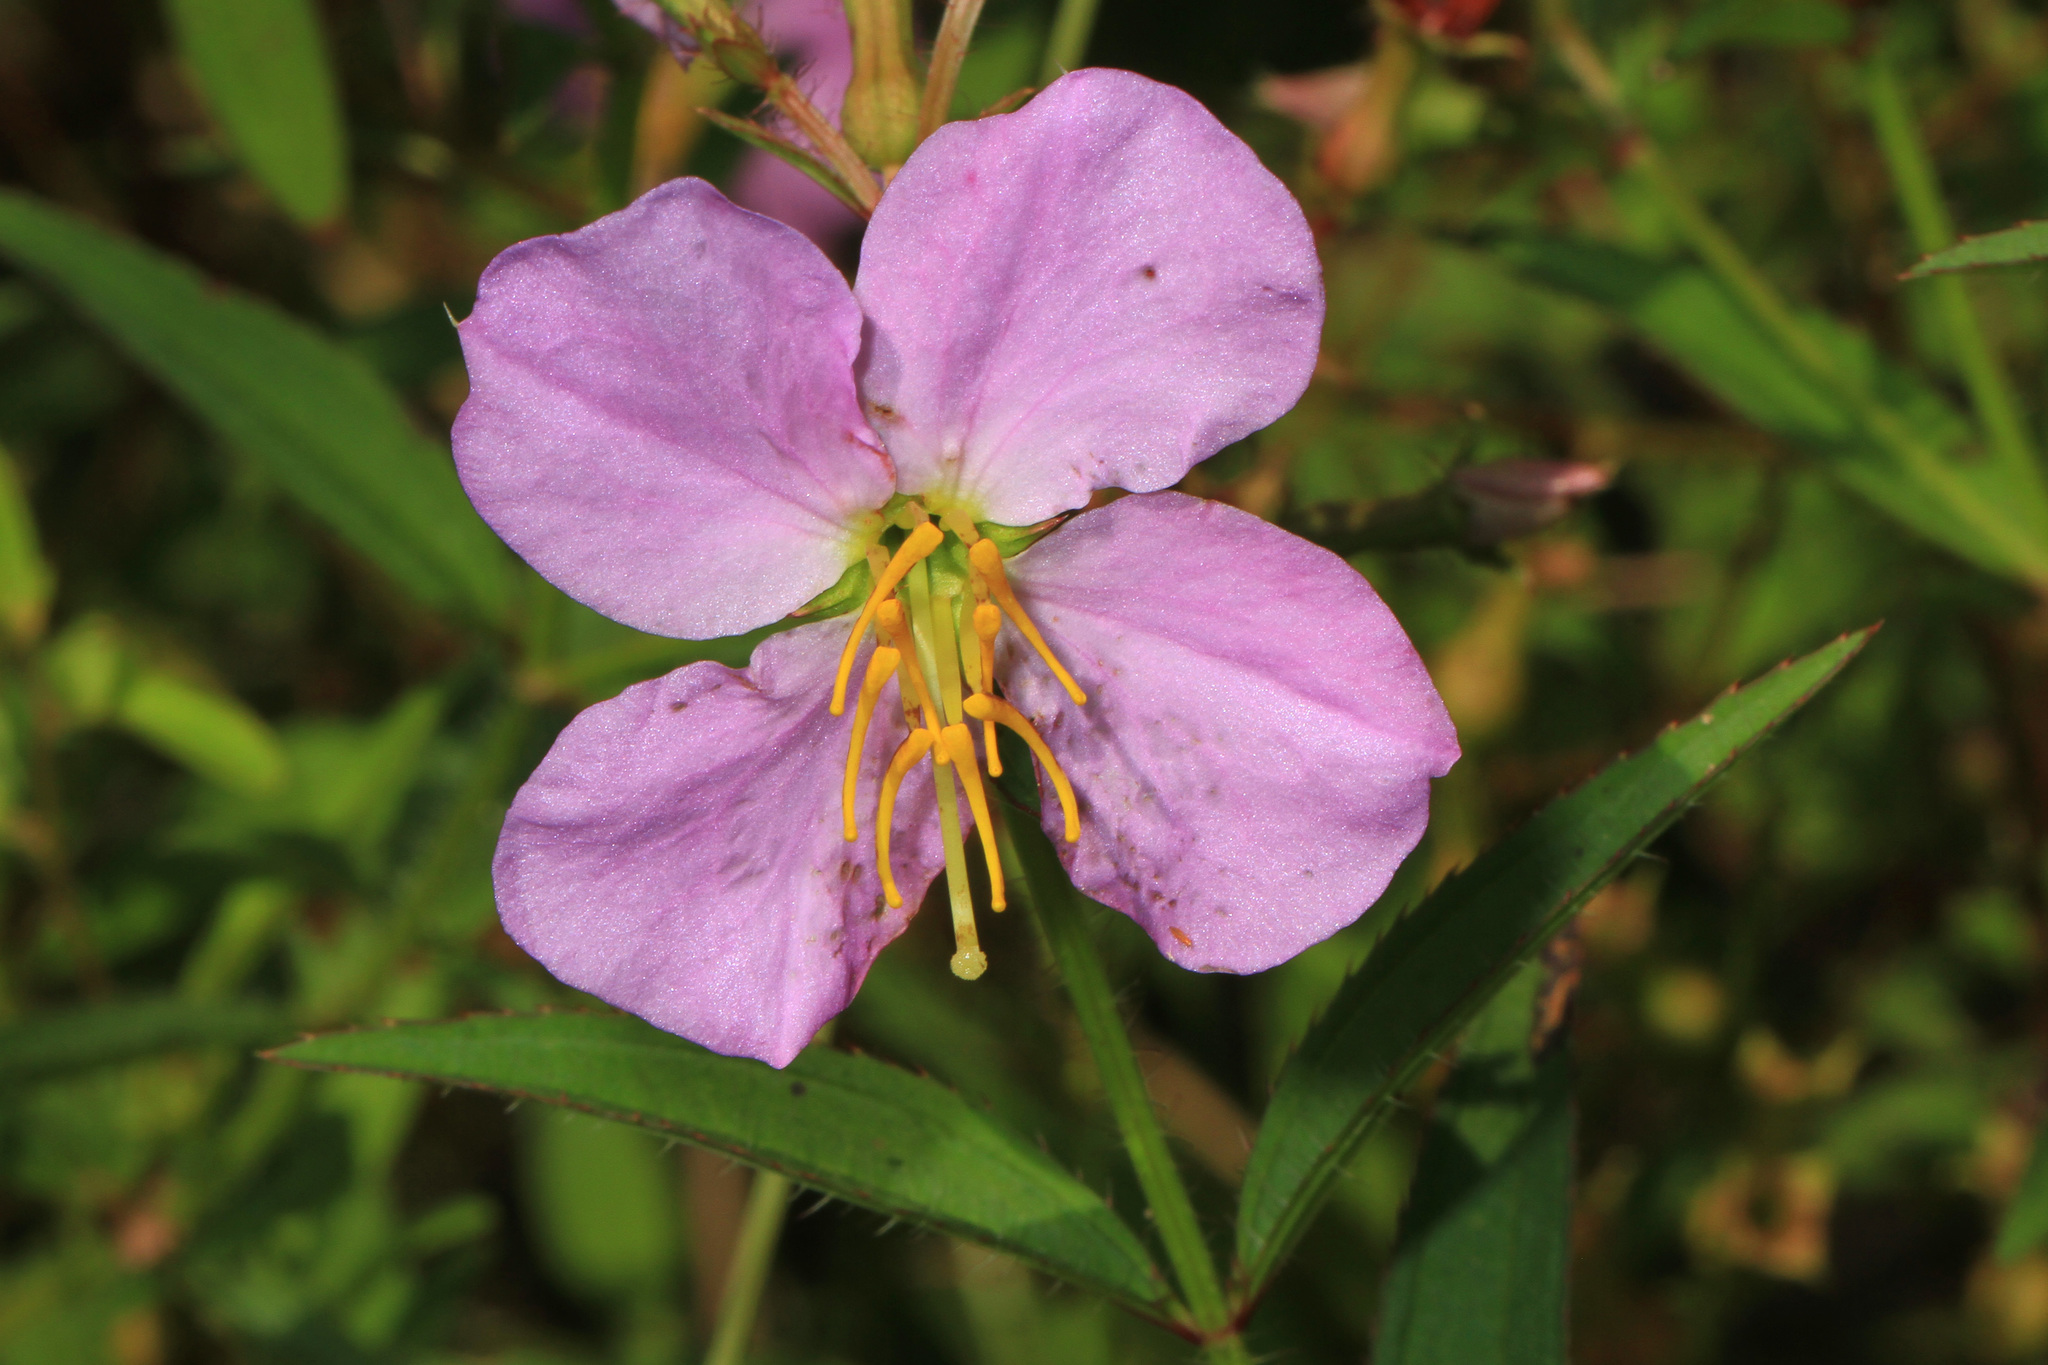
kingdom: Plantae
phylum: Tracheophyta
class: Magnoliopsida
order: Myrtales
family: Melastomataceae
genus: Rhexia
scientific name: Rhexia virginica
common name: Common meadow beauty
